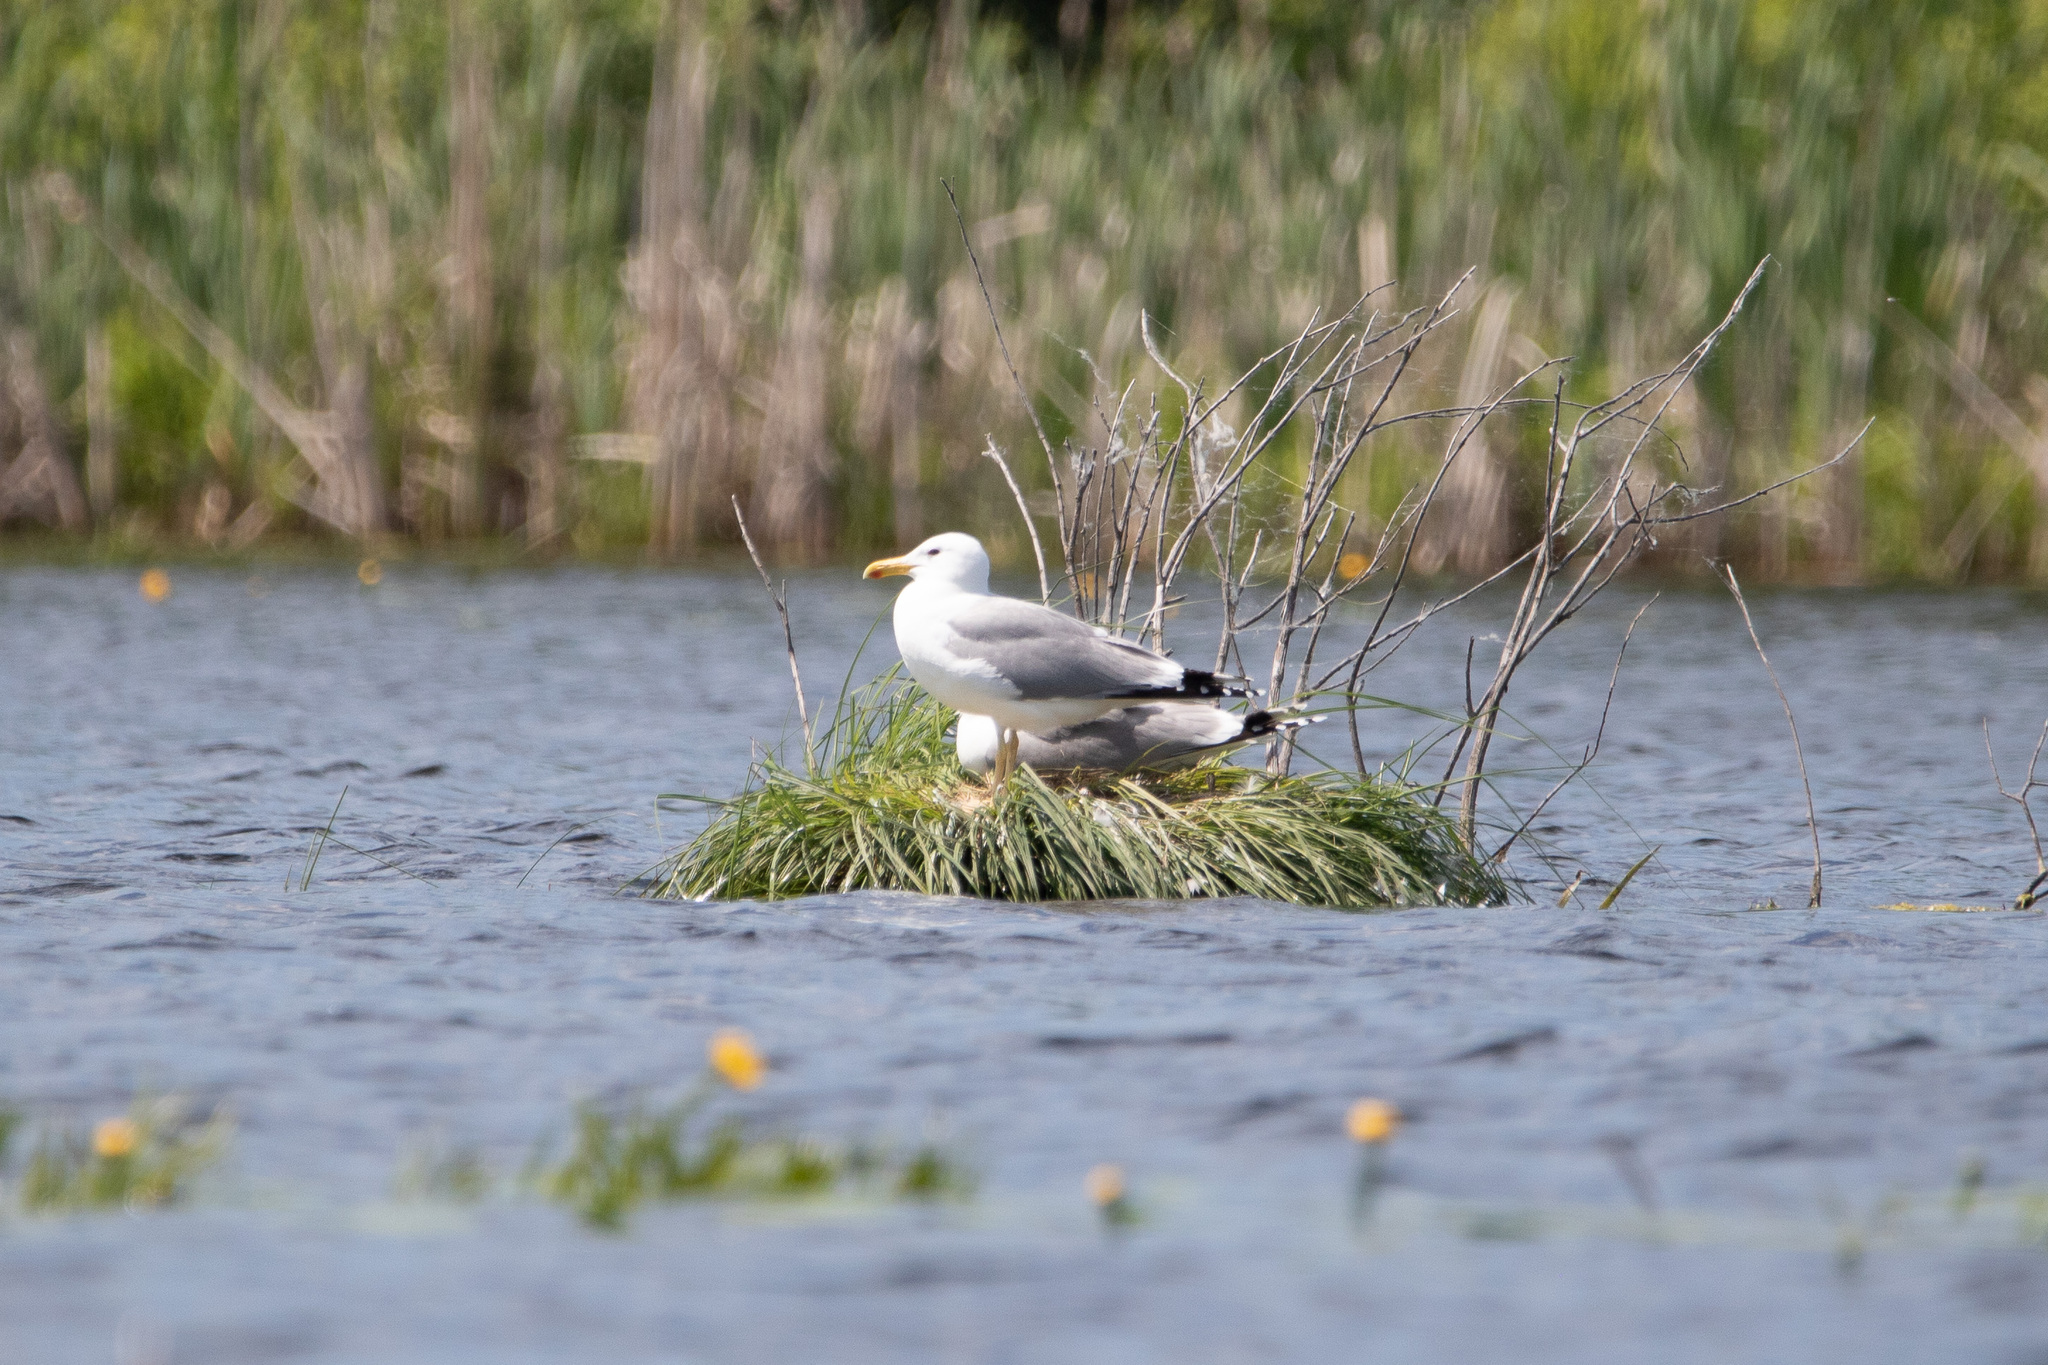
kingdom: Animalia
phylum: Chordata
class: Aves
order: Charadriiformes
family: Laridae
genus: Larus
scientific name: Larus cachinnans
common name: Caspian gull
